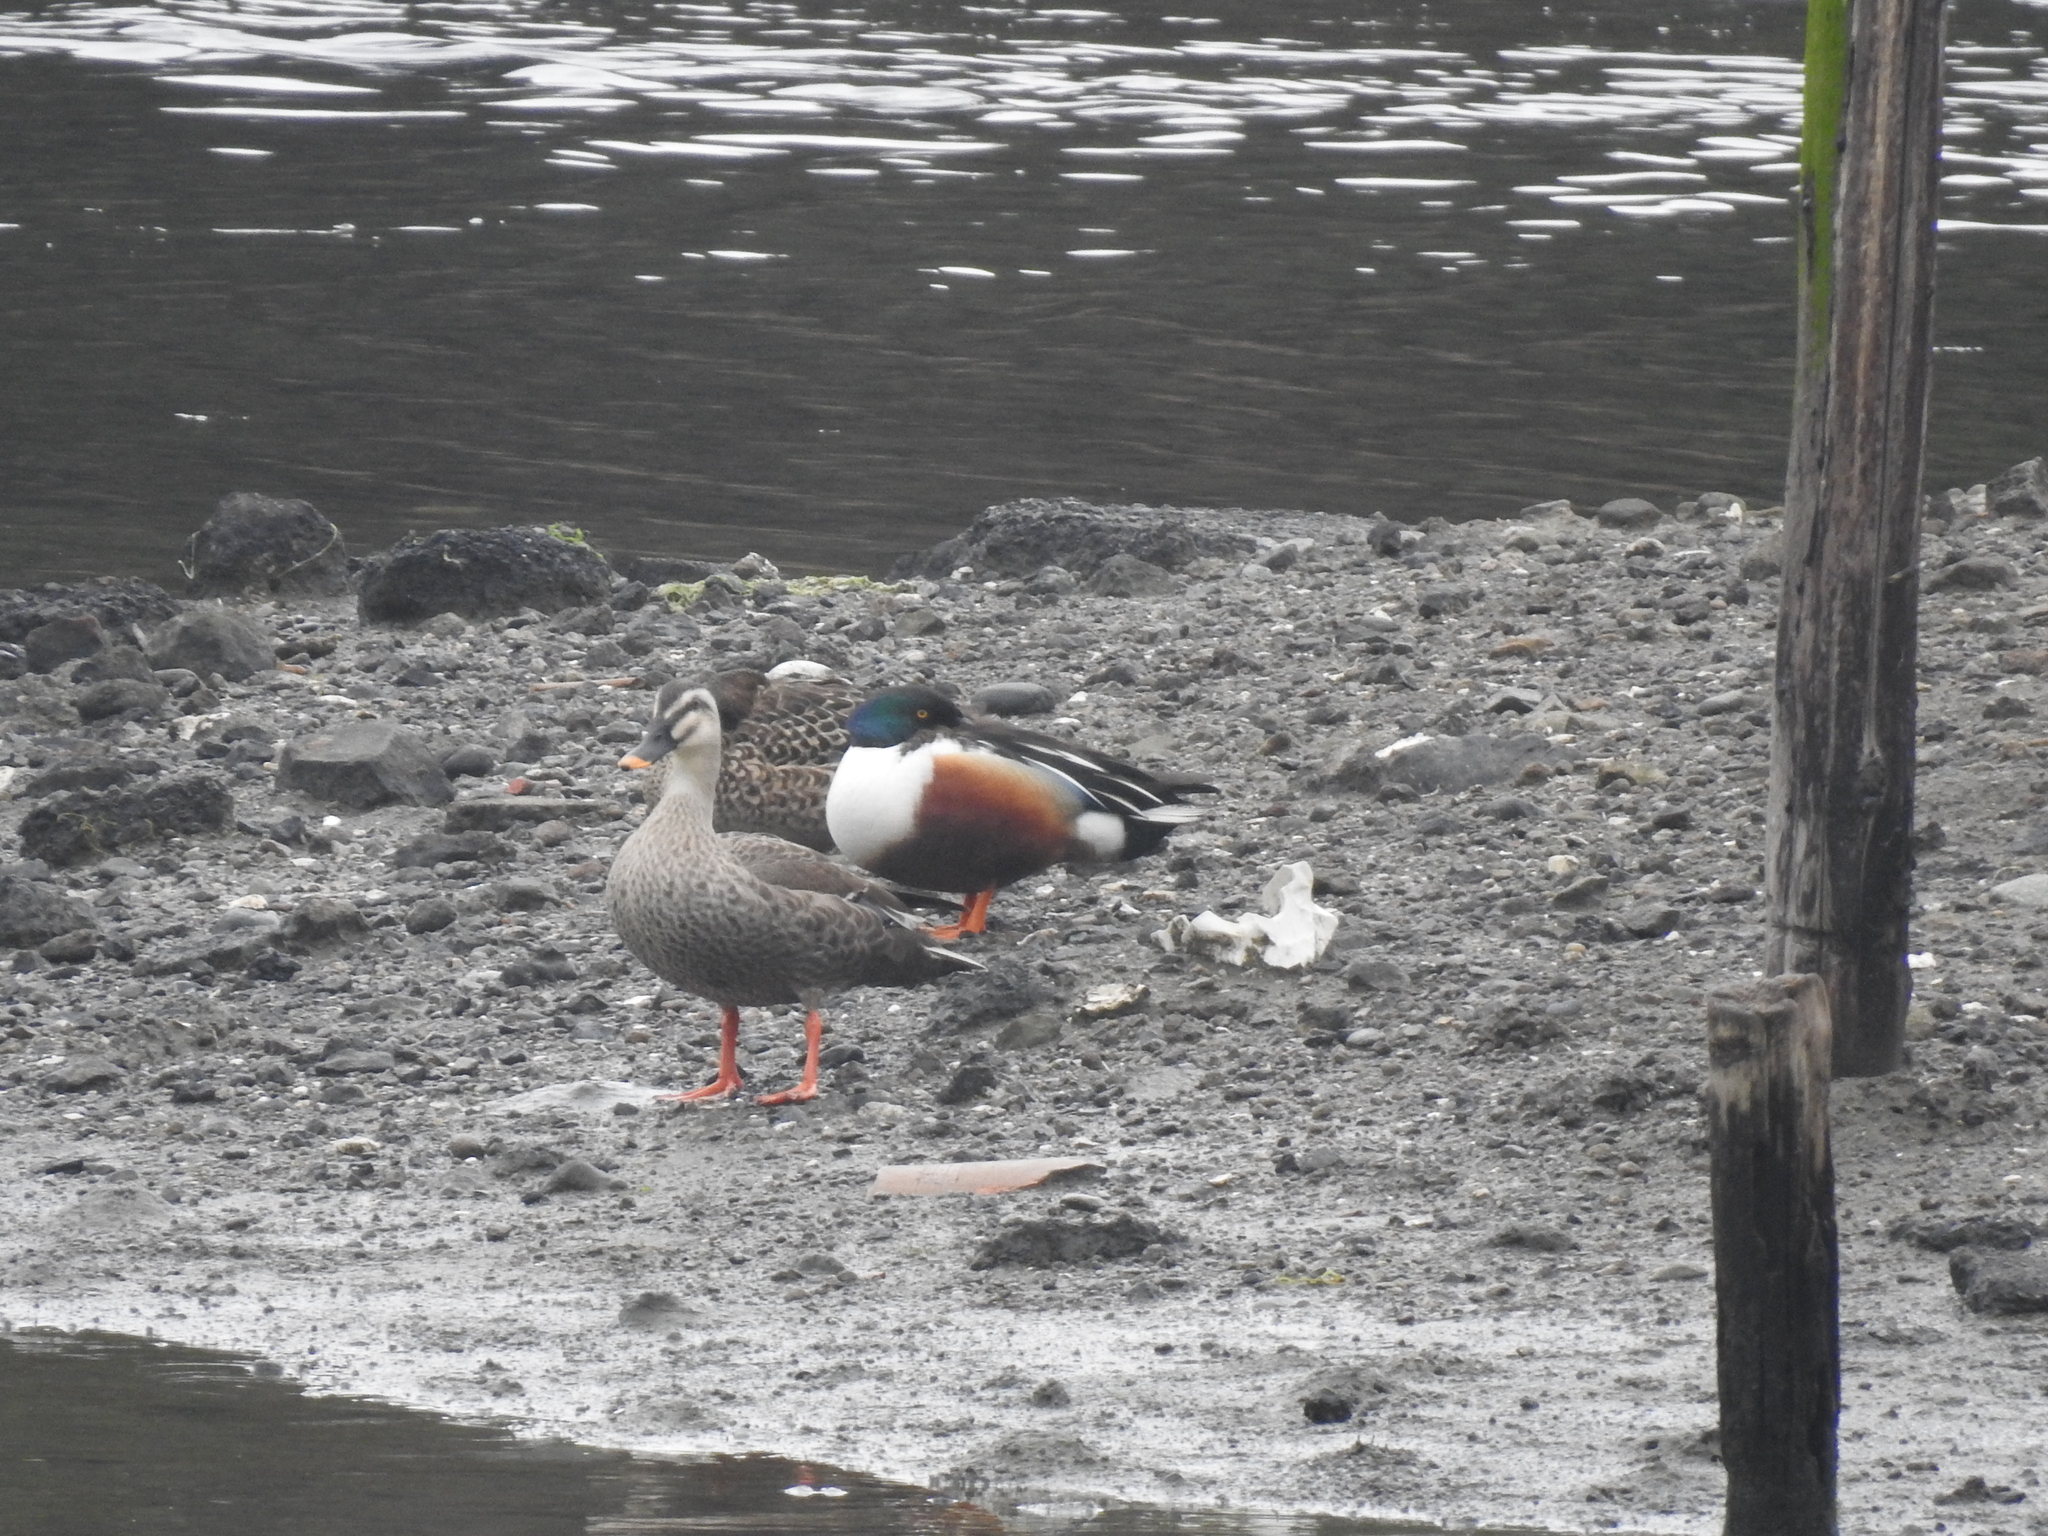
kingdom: Animalia
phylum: Chordata
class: Aves
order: Anseriformes
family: Anatidae
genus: Spatula
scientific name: Spatula clypeata
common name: Northern shoveler
